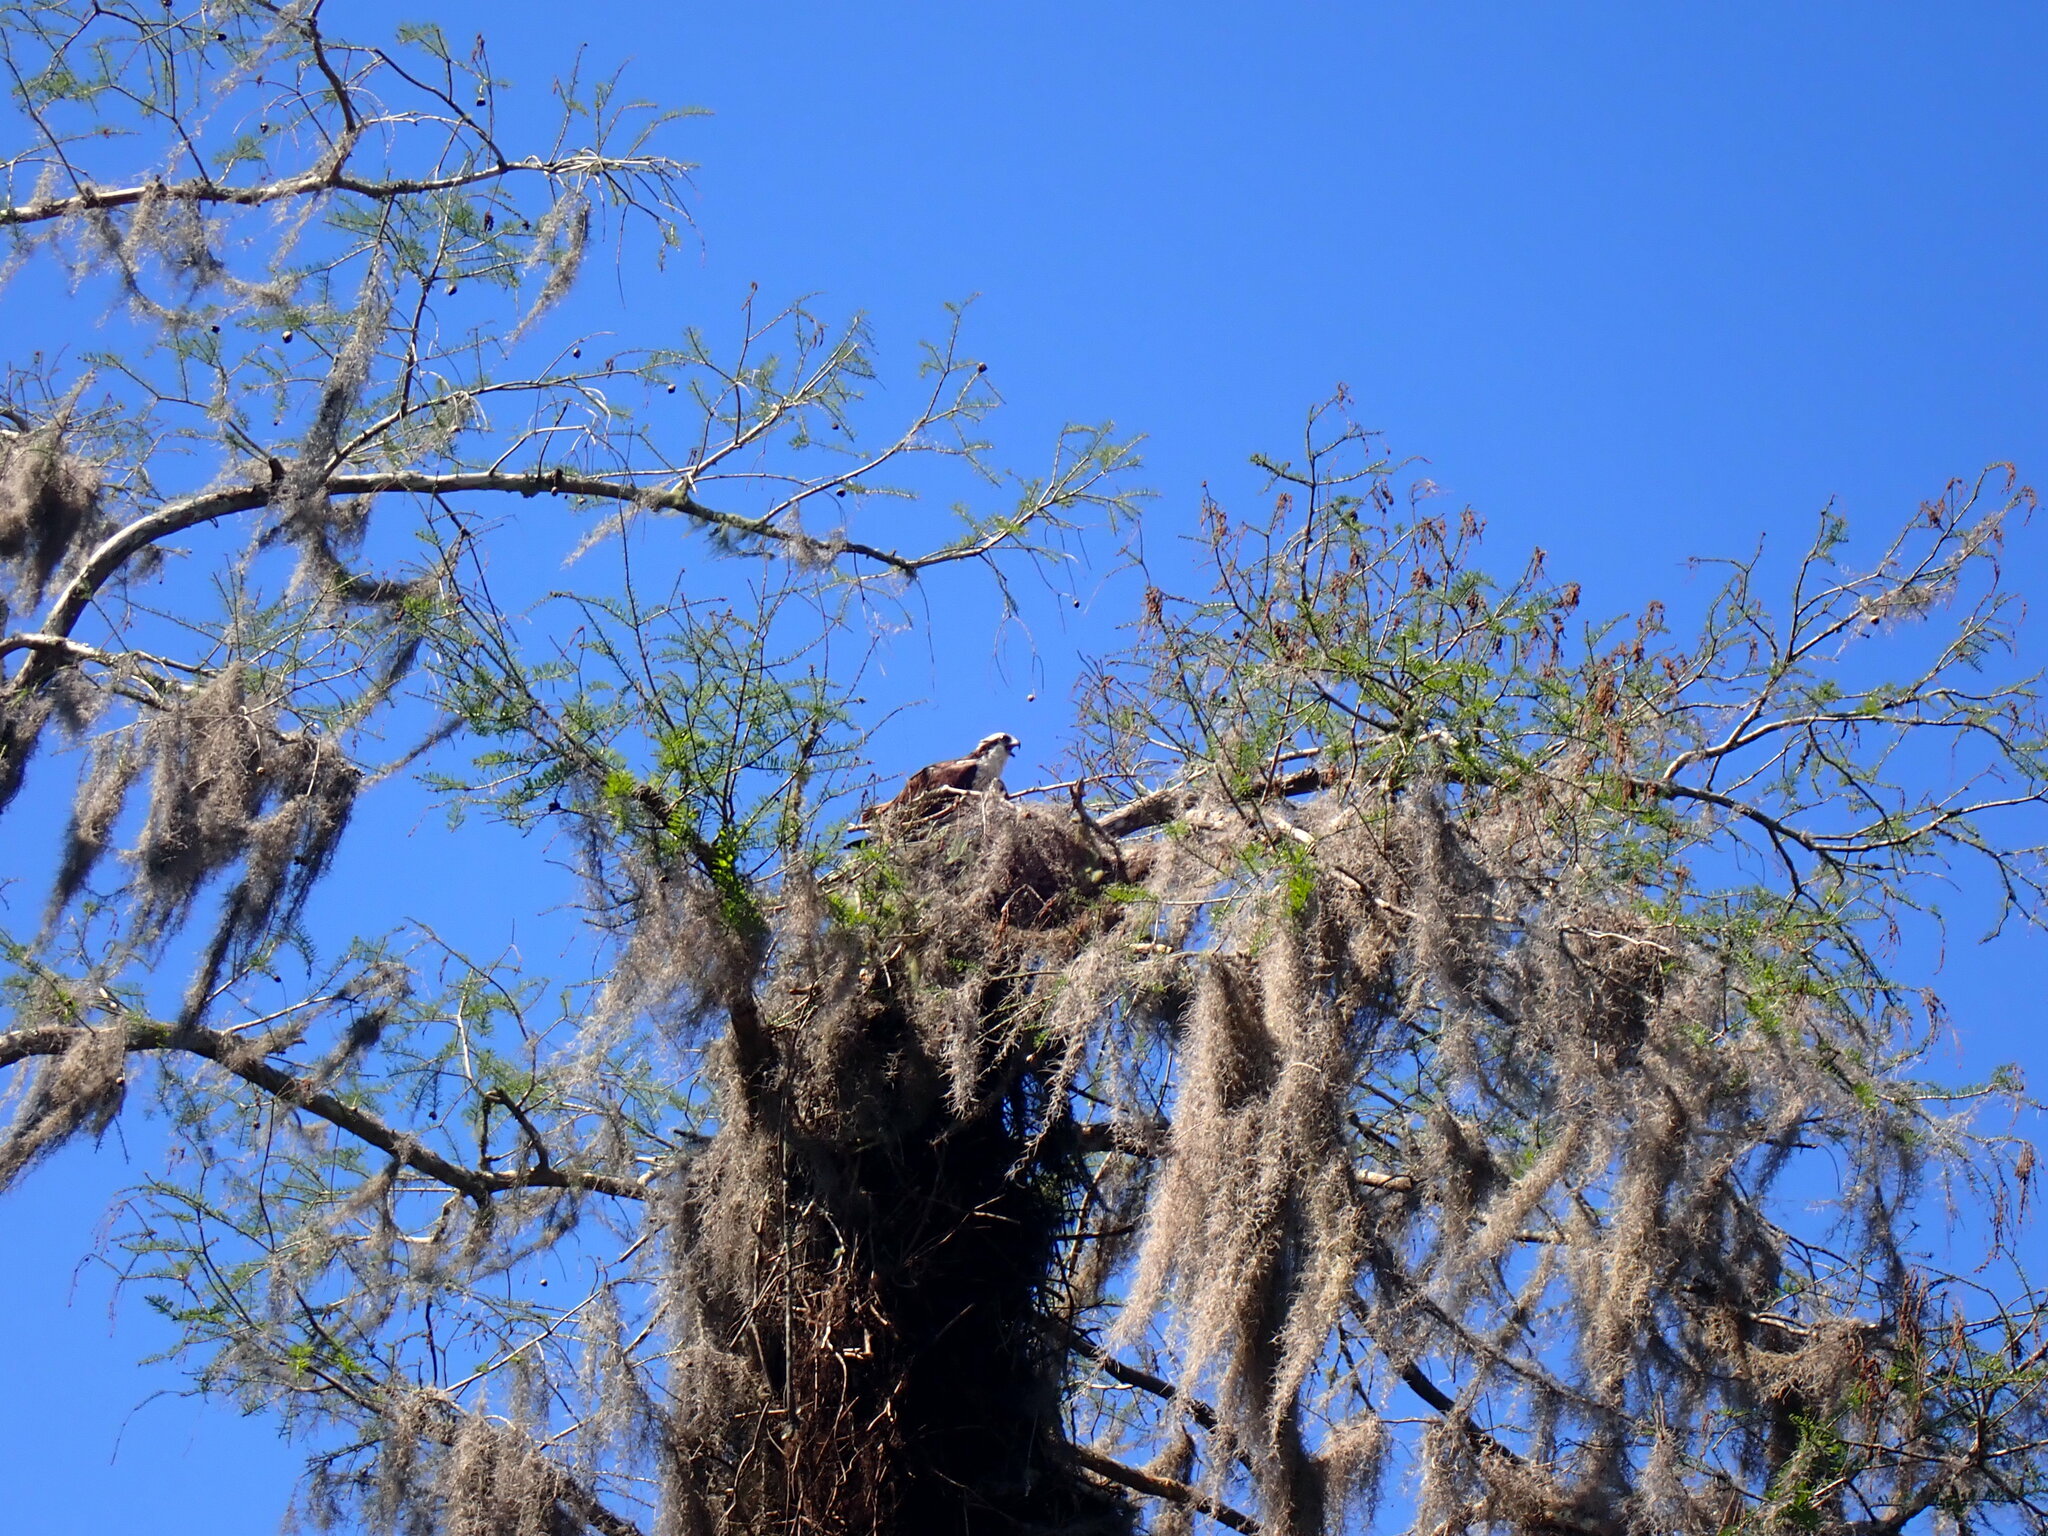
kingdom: Animalia
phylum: Chordata
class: Aves
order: Accipitriformes
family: Pandionidae
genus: Pandion
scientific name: Pandion haliaetus
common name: Osprey
